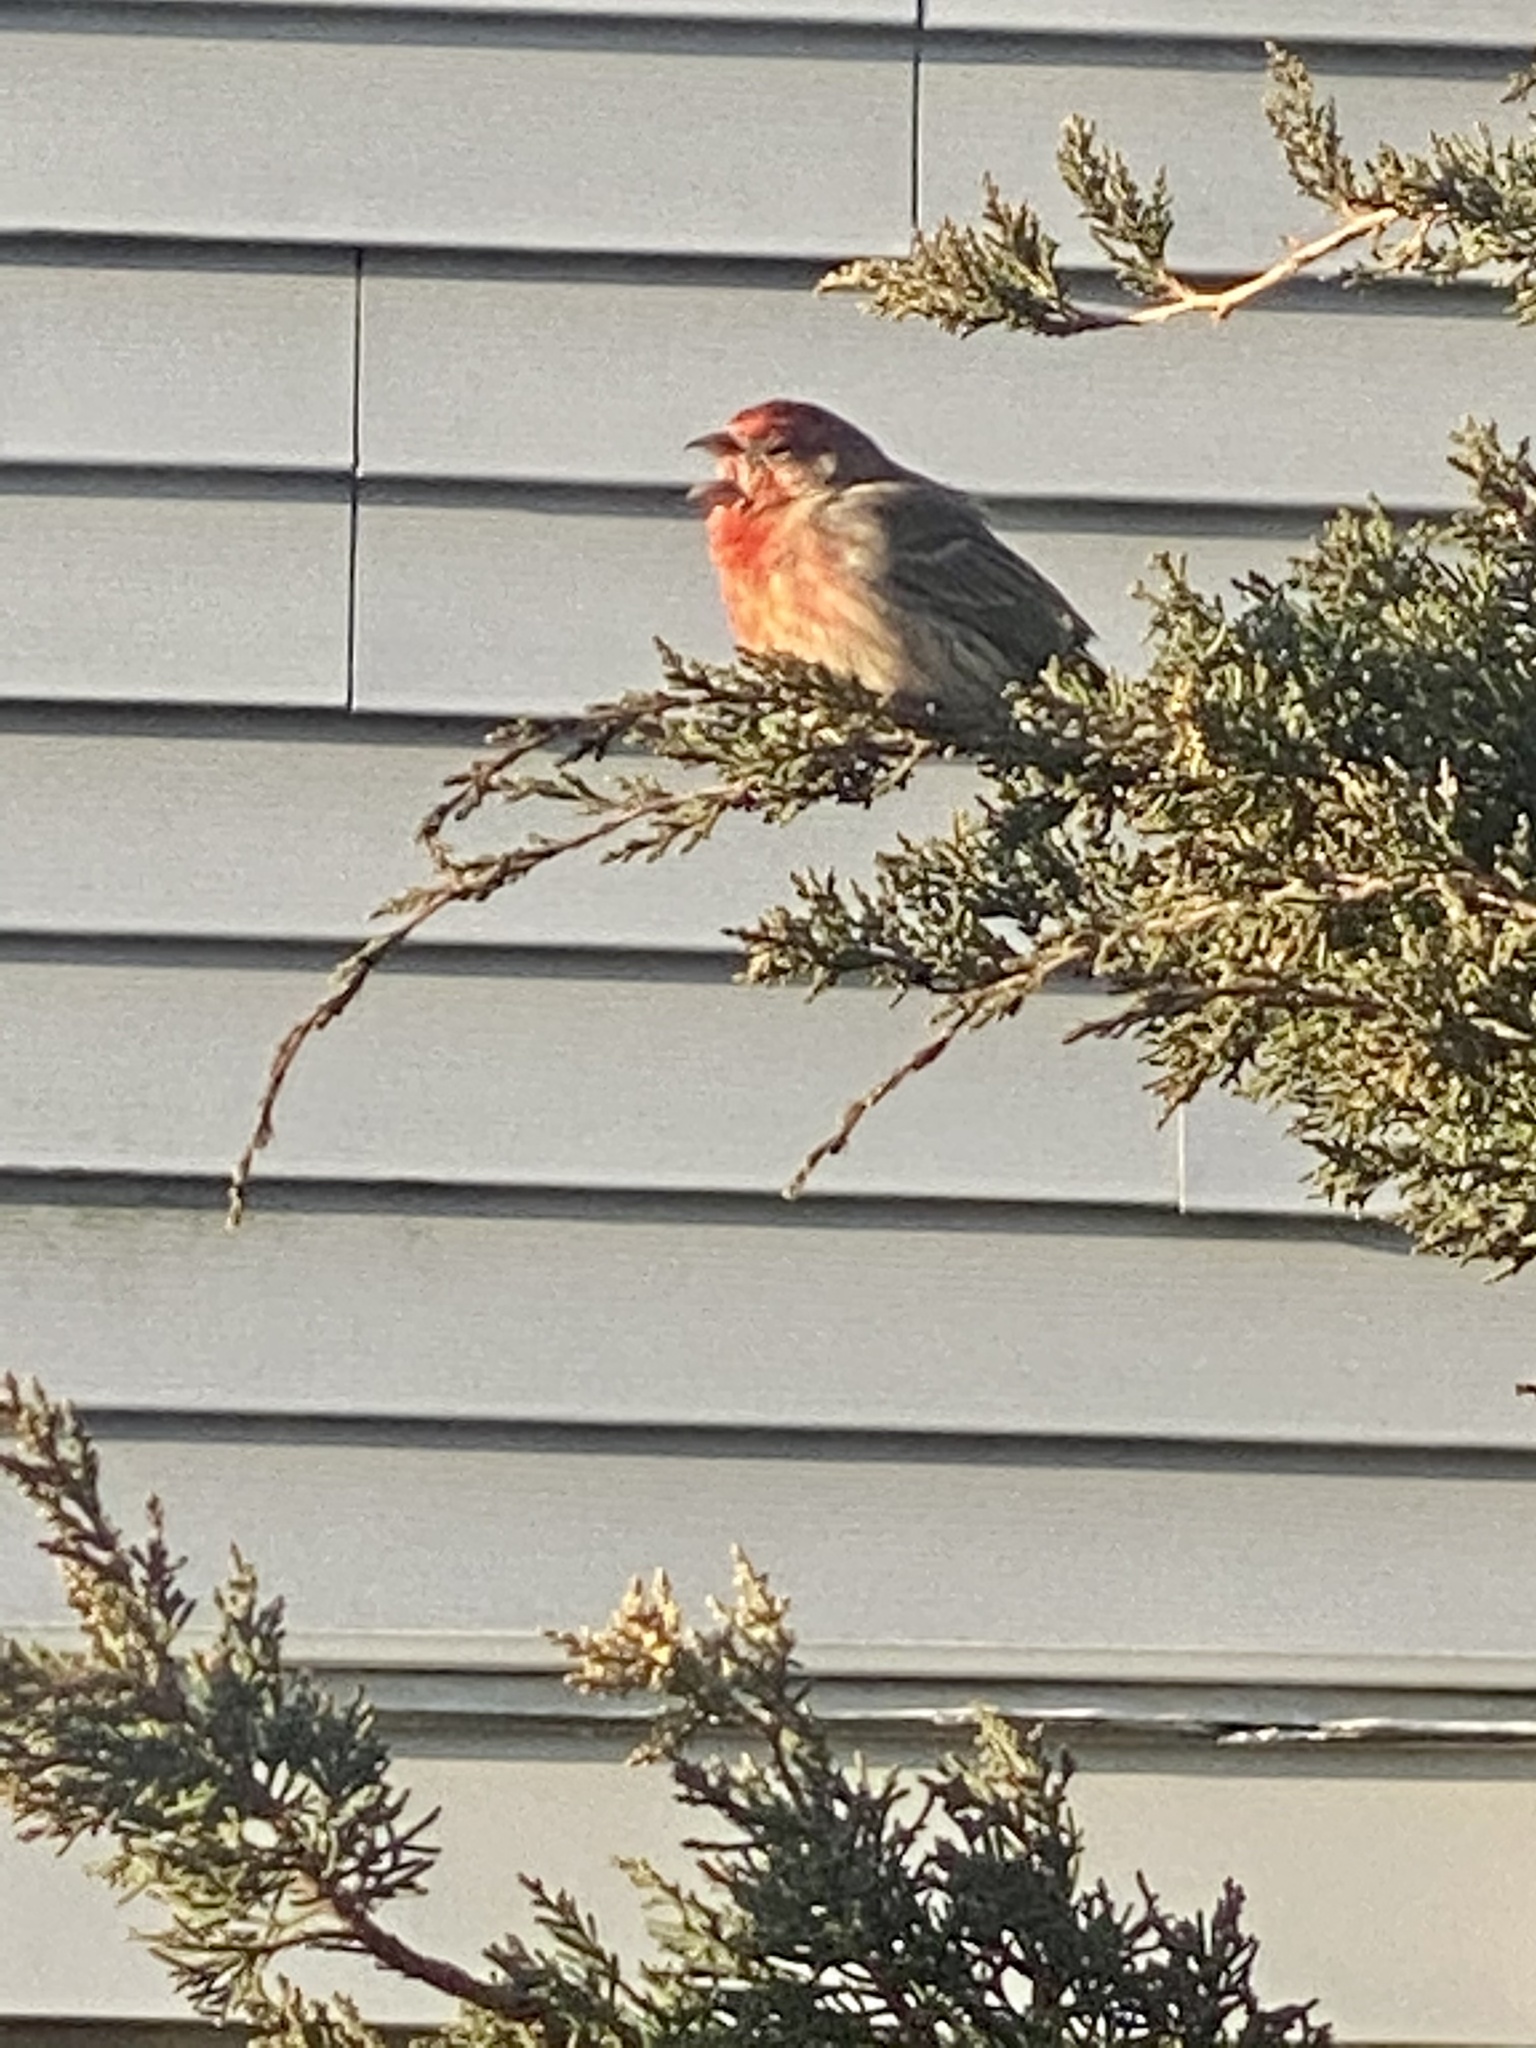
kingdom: Animalia
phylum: Chordata
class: Aves
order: Passeriformes
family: Fringillidae
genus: Haemorhous
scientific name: Haemorhous mexicanus
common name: House finch
